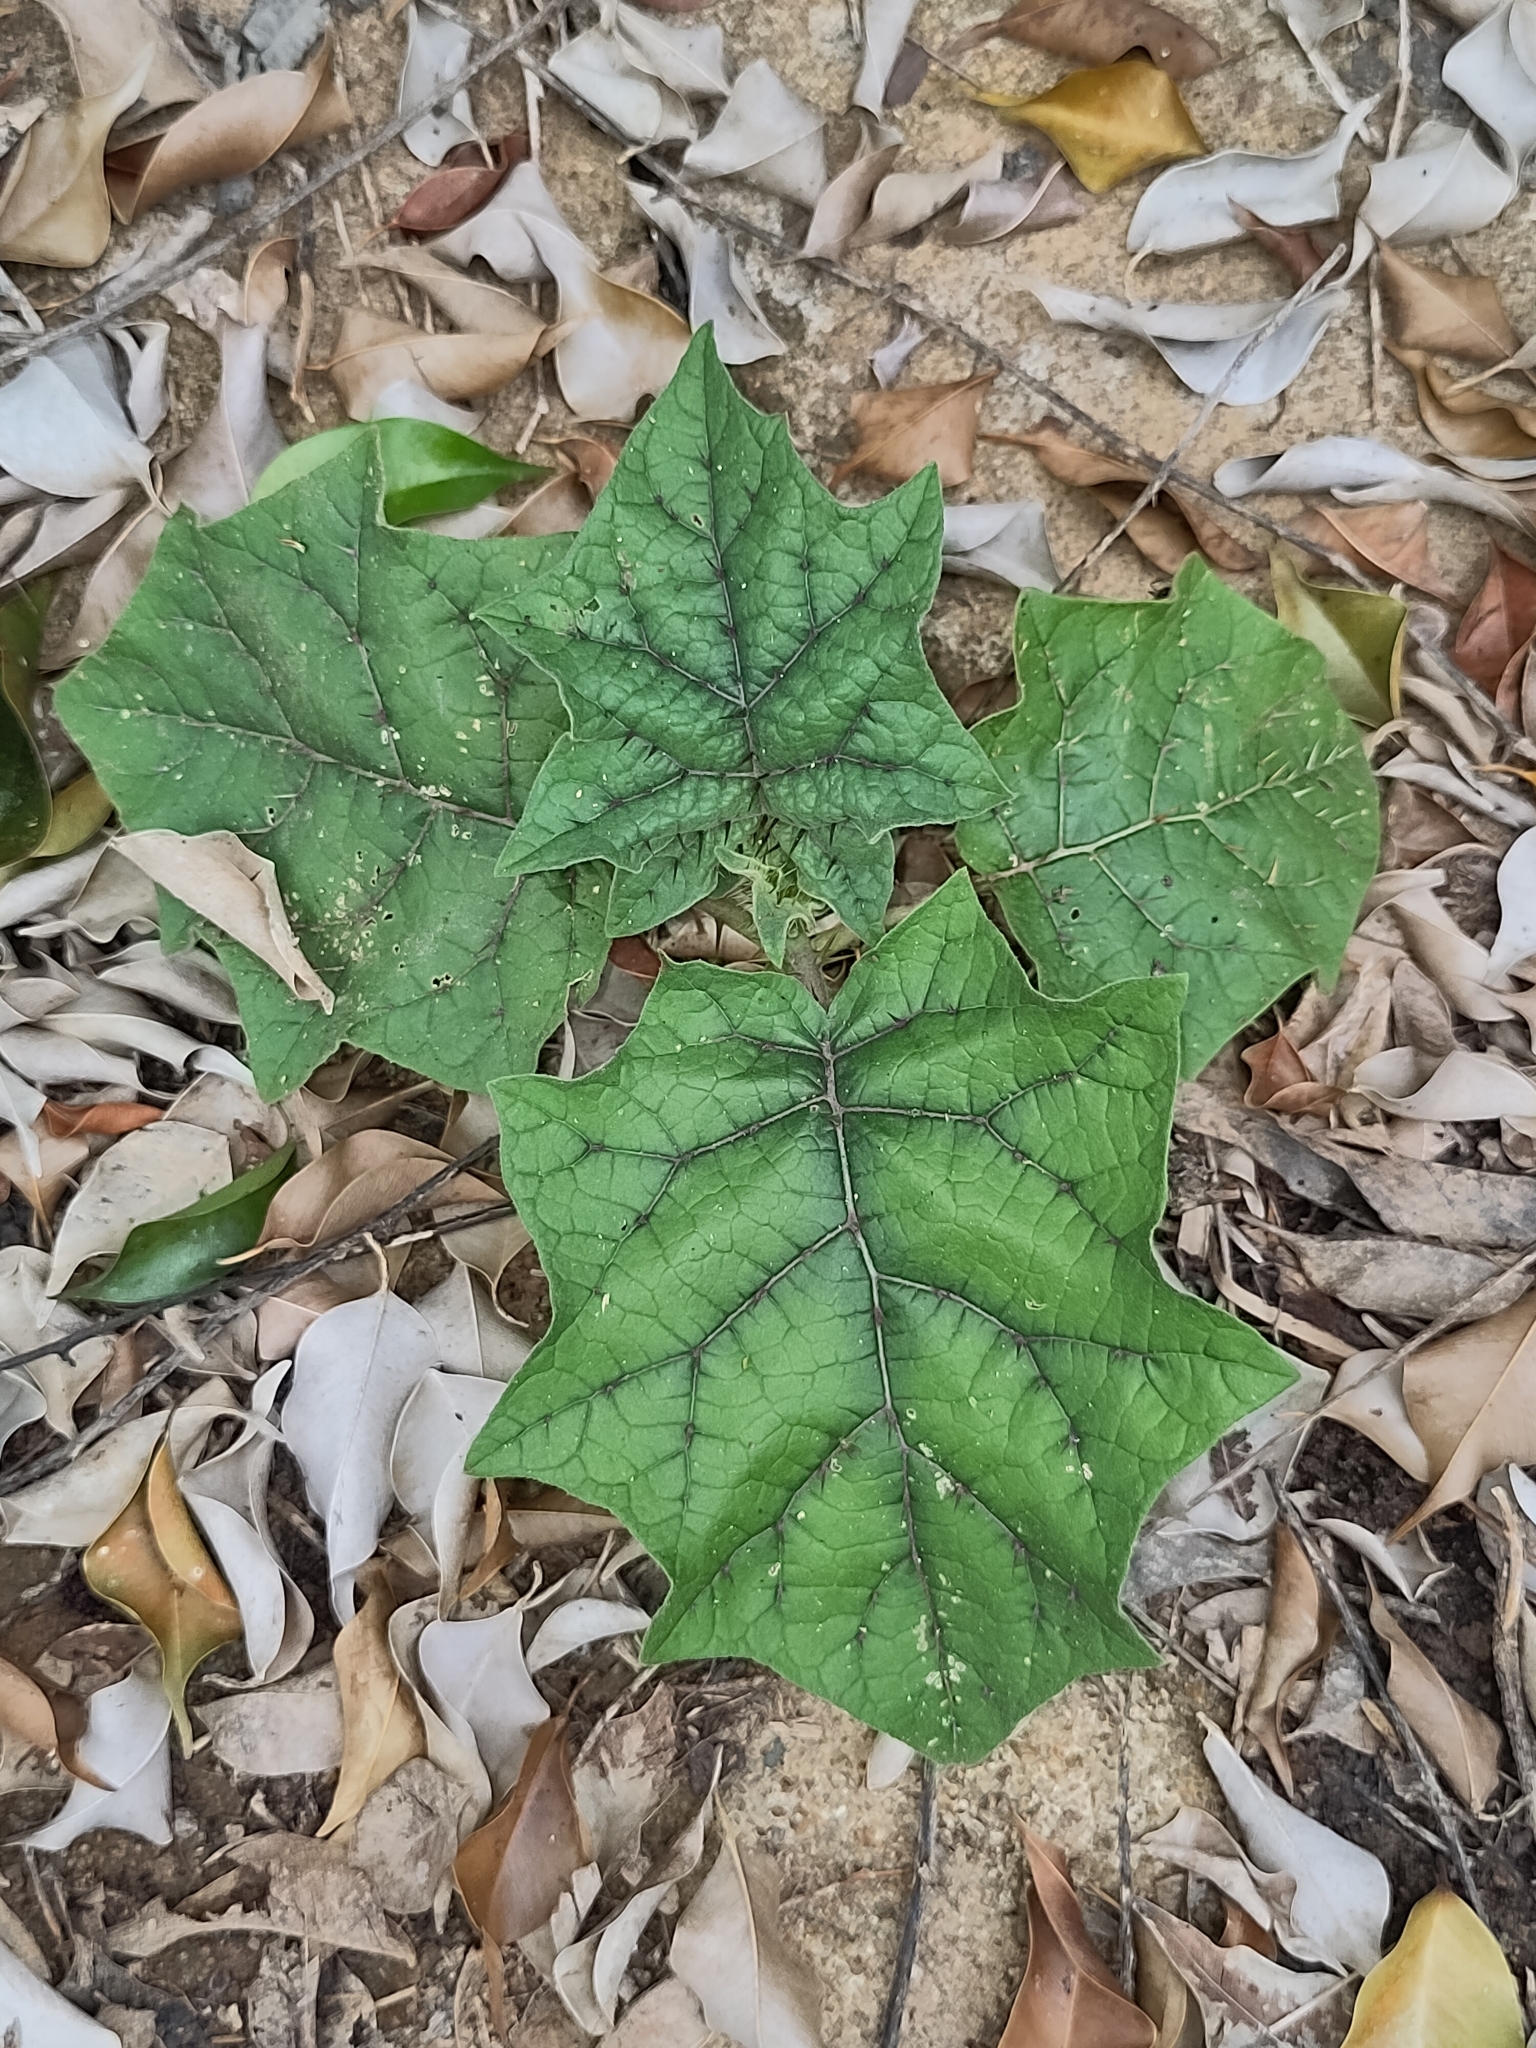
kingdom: Plantae
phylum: Tracheophyta
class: Magnoliopsida
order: Solanales
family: Solanaceae
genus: Solanum
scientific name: Solanum
